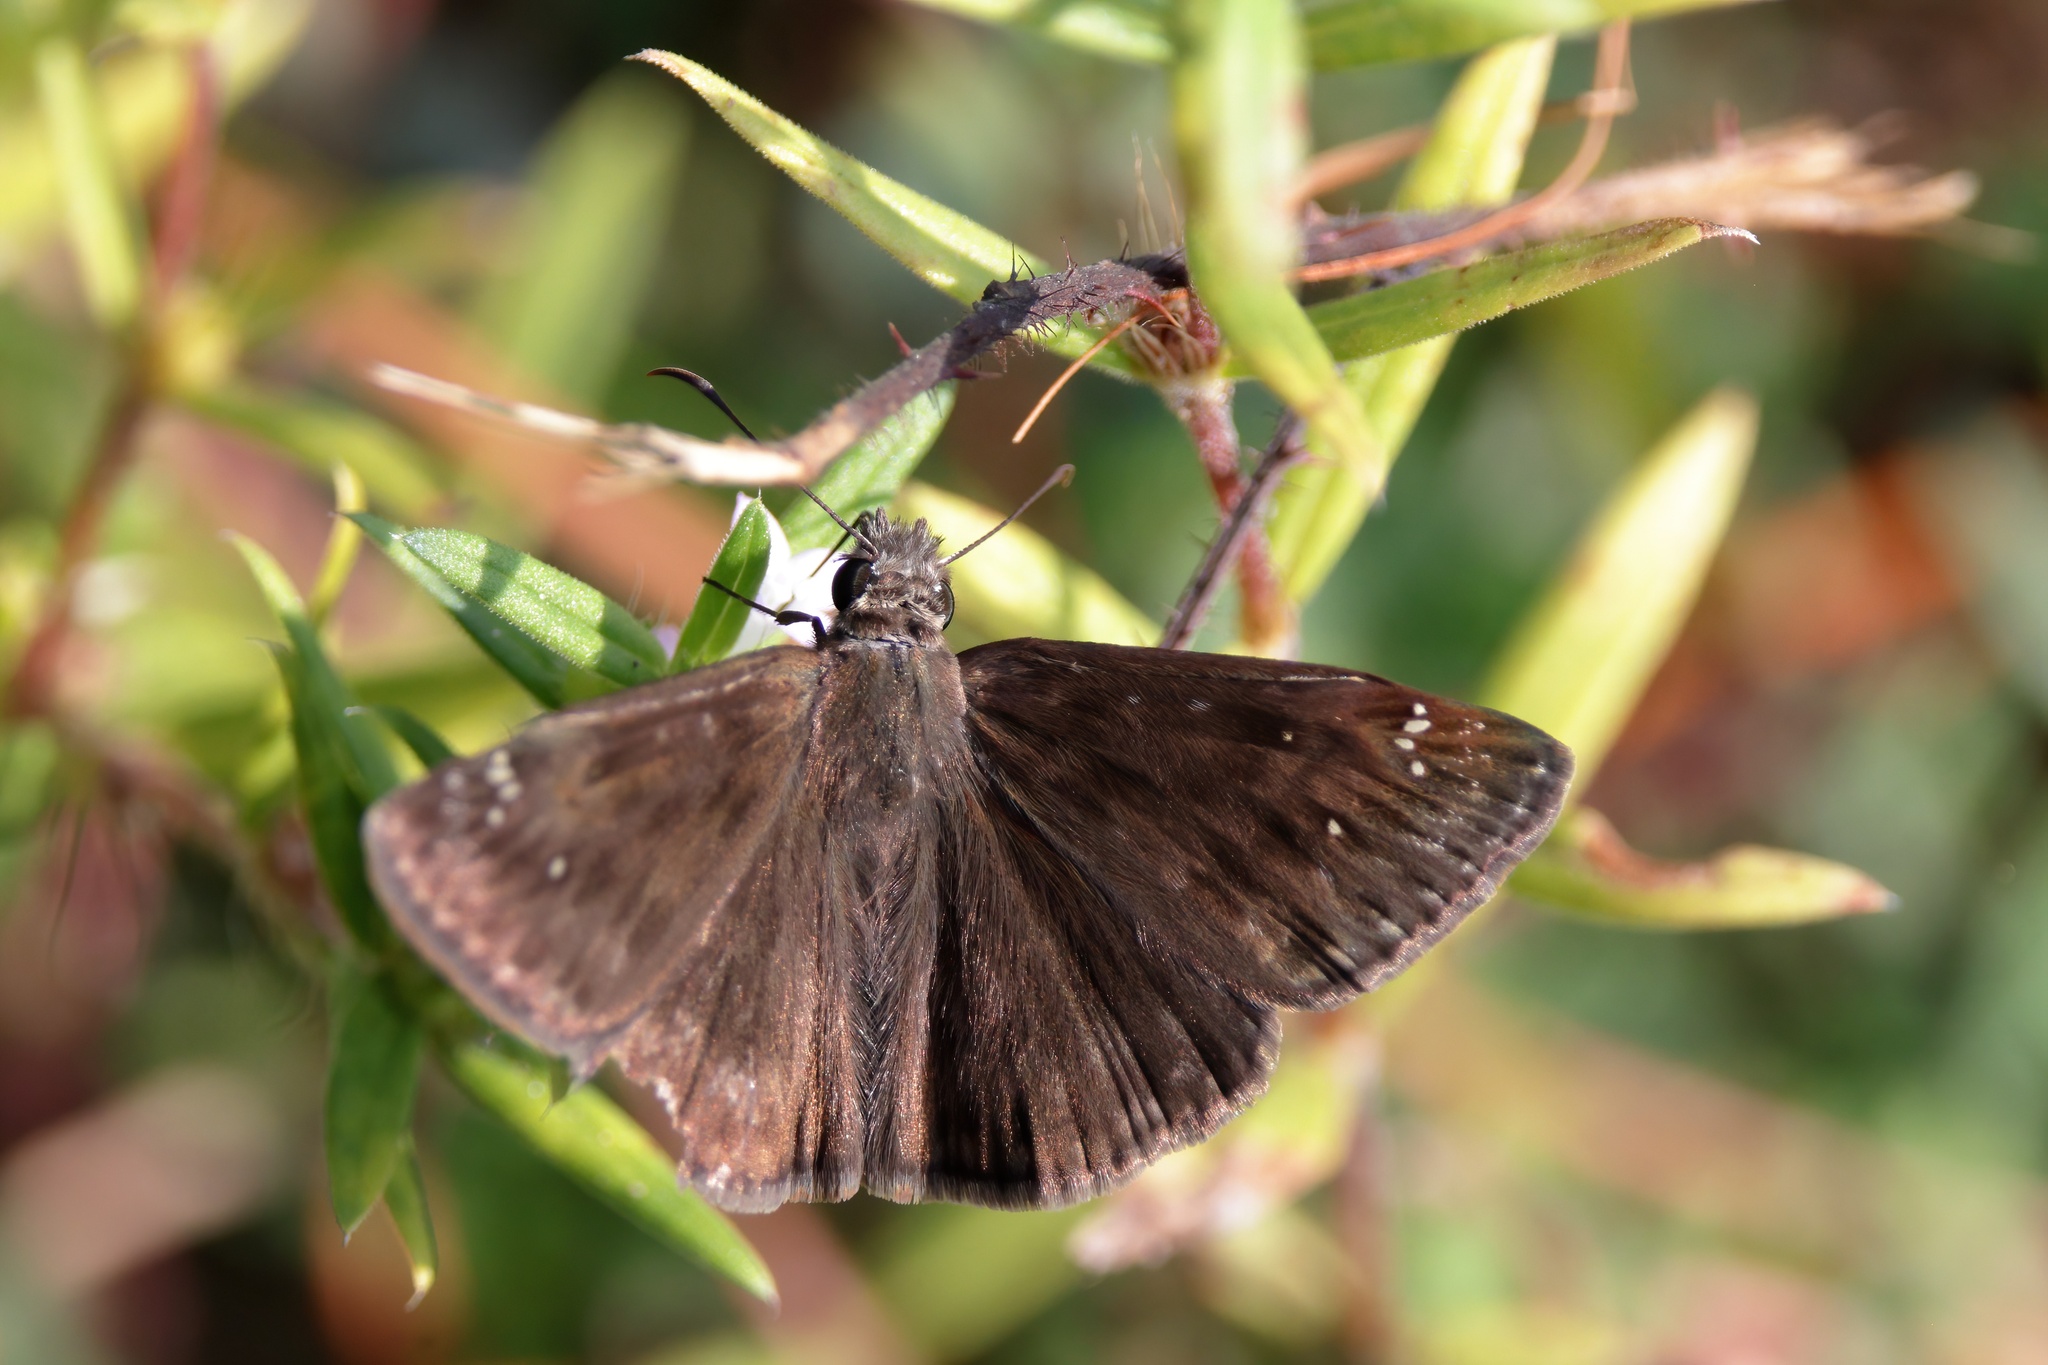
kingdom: Animalia
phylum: Arthropoda
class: Insecta
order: Lepidoptera
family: Hesperiidae
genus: Erynnis
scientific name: Erynnis horatius
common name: Horace's duskywing
